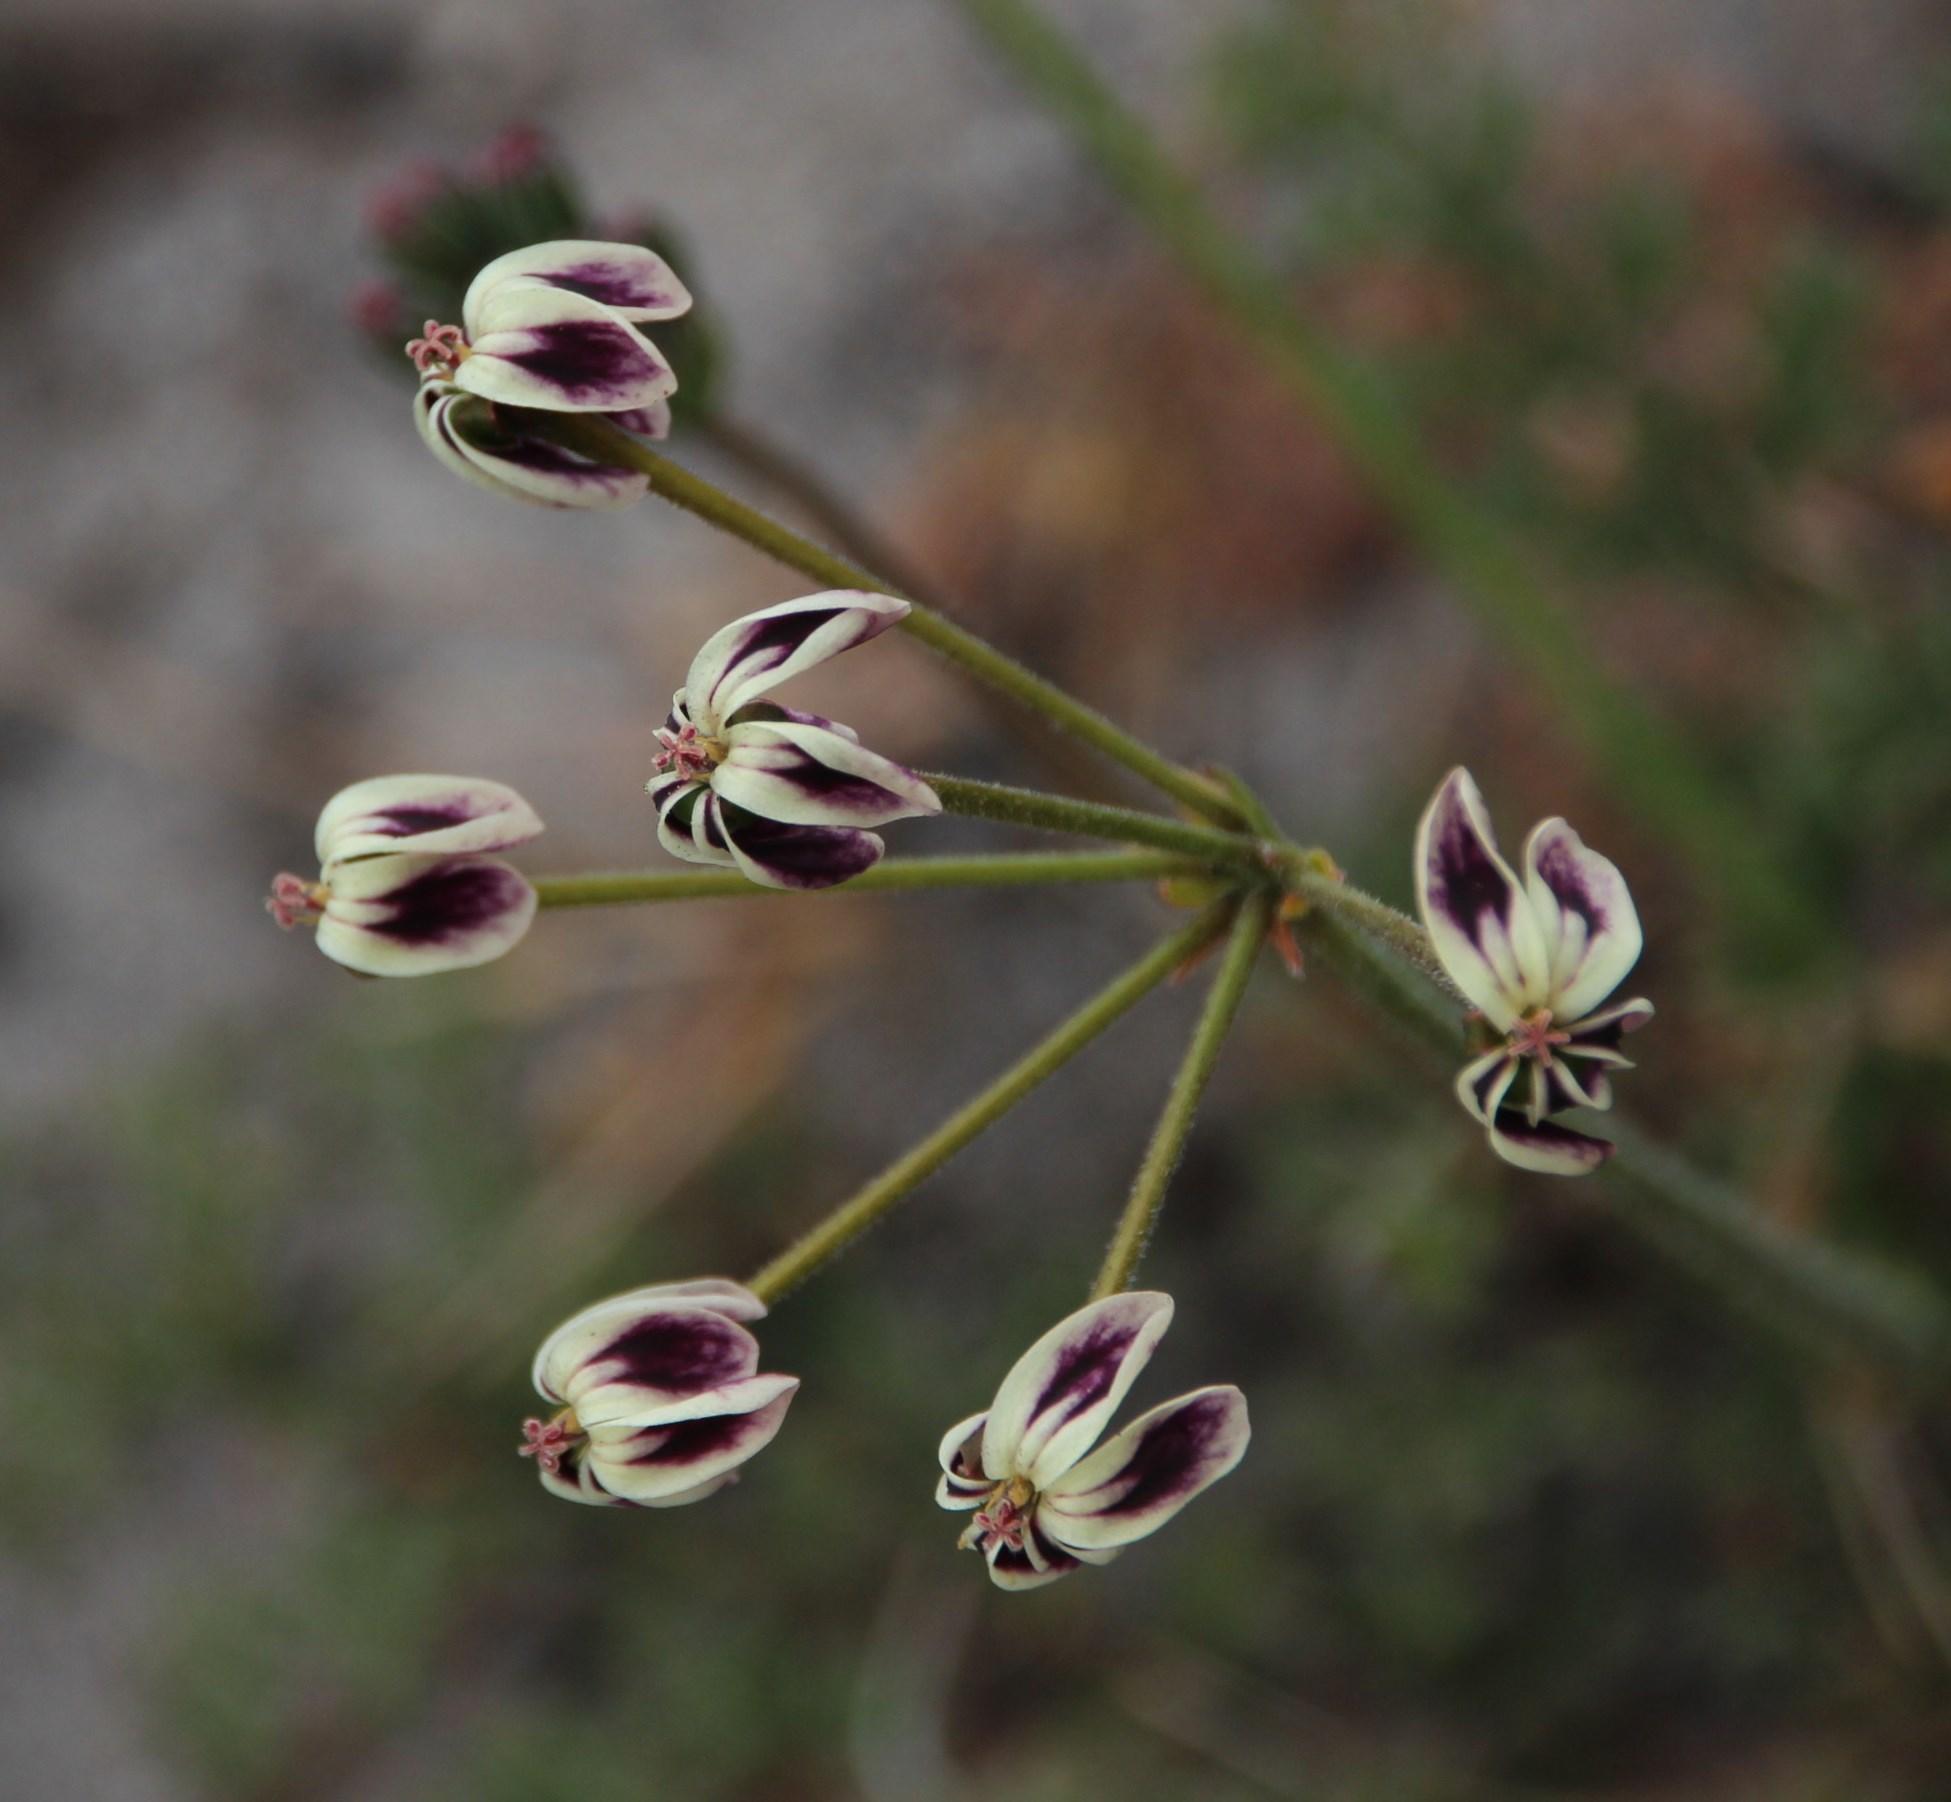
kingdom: Plantae
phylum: Tracheophyta
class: Magnoliopsida
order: Geraniales
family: Geraniaceae
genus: Pelargonium
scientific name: Pelargonium triste
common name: Night-scent pelargonium
